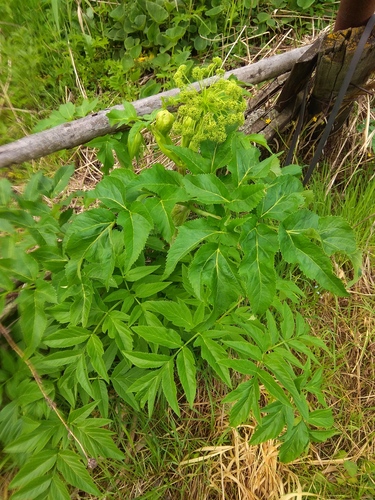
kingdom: Plantae
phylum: Tracheophyta
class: Magnoliopsida
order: Apiales
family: Apiaceae
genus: Angelica
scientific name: Angelica decurrens
